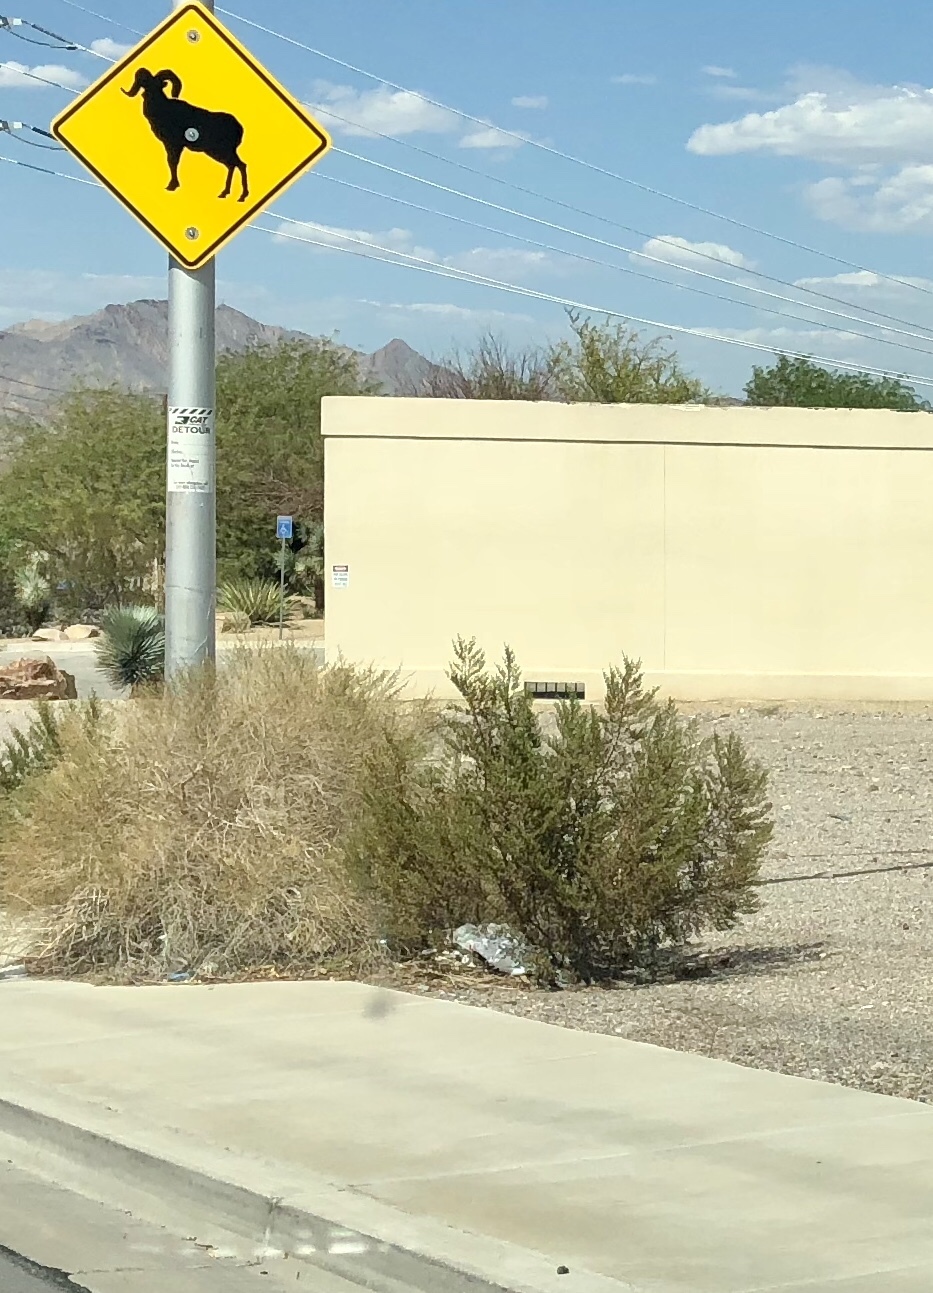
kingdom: Plantae
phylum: Tracheophyta
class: Magnoliopsida
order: Zygophyllales
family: Zygophyllaceae
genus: Larrea
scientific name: Larrea tridentata
